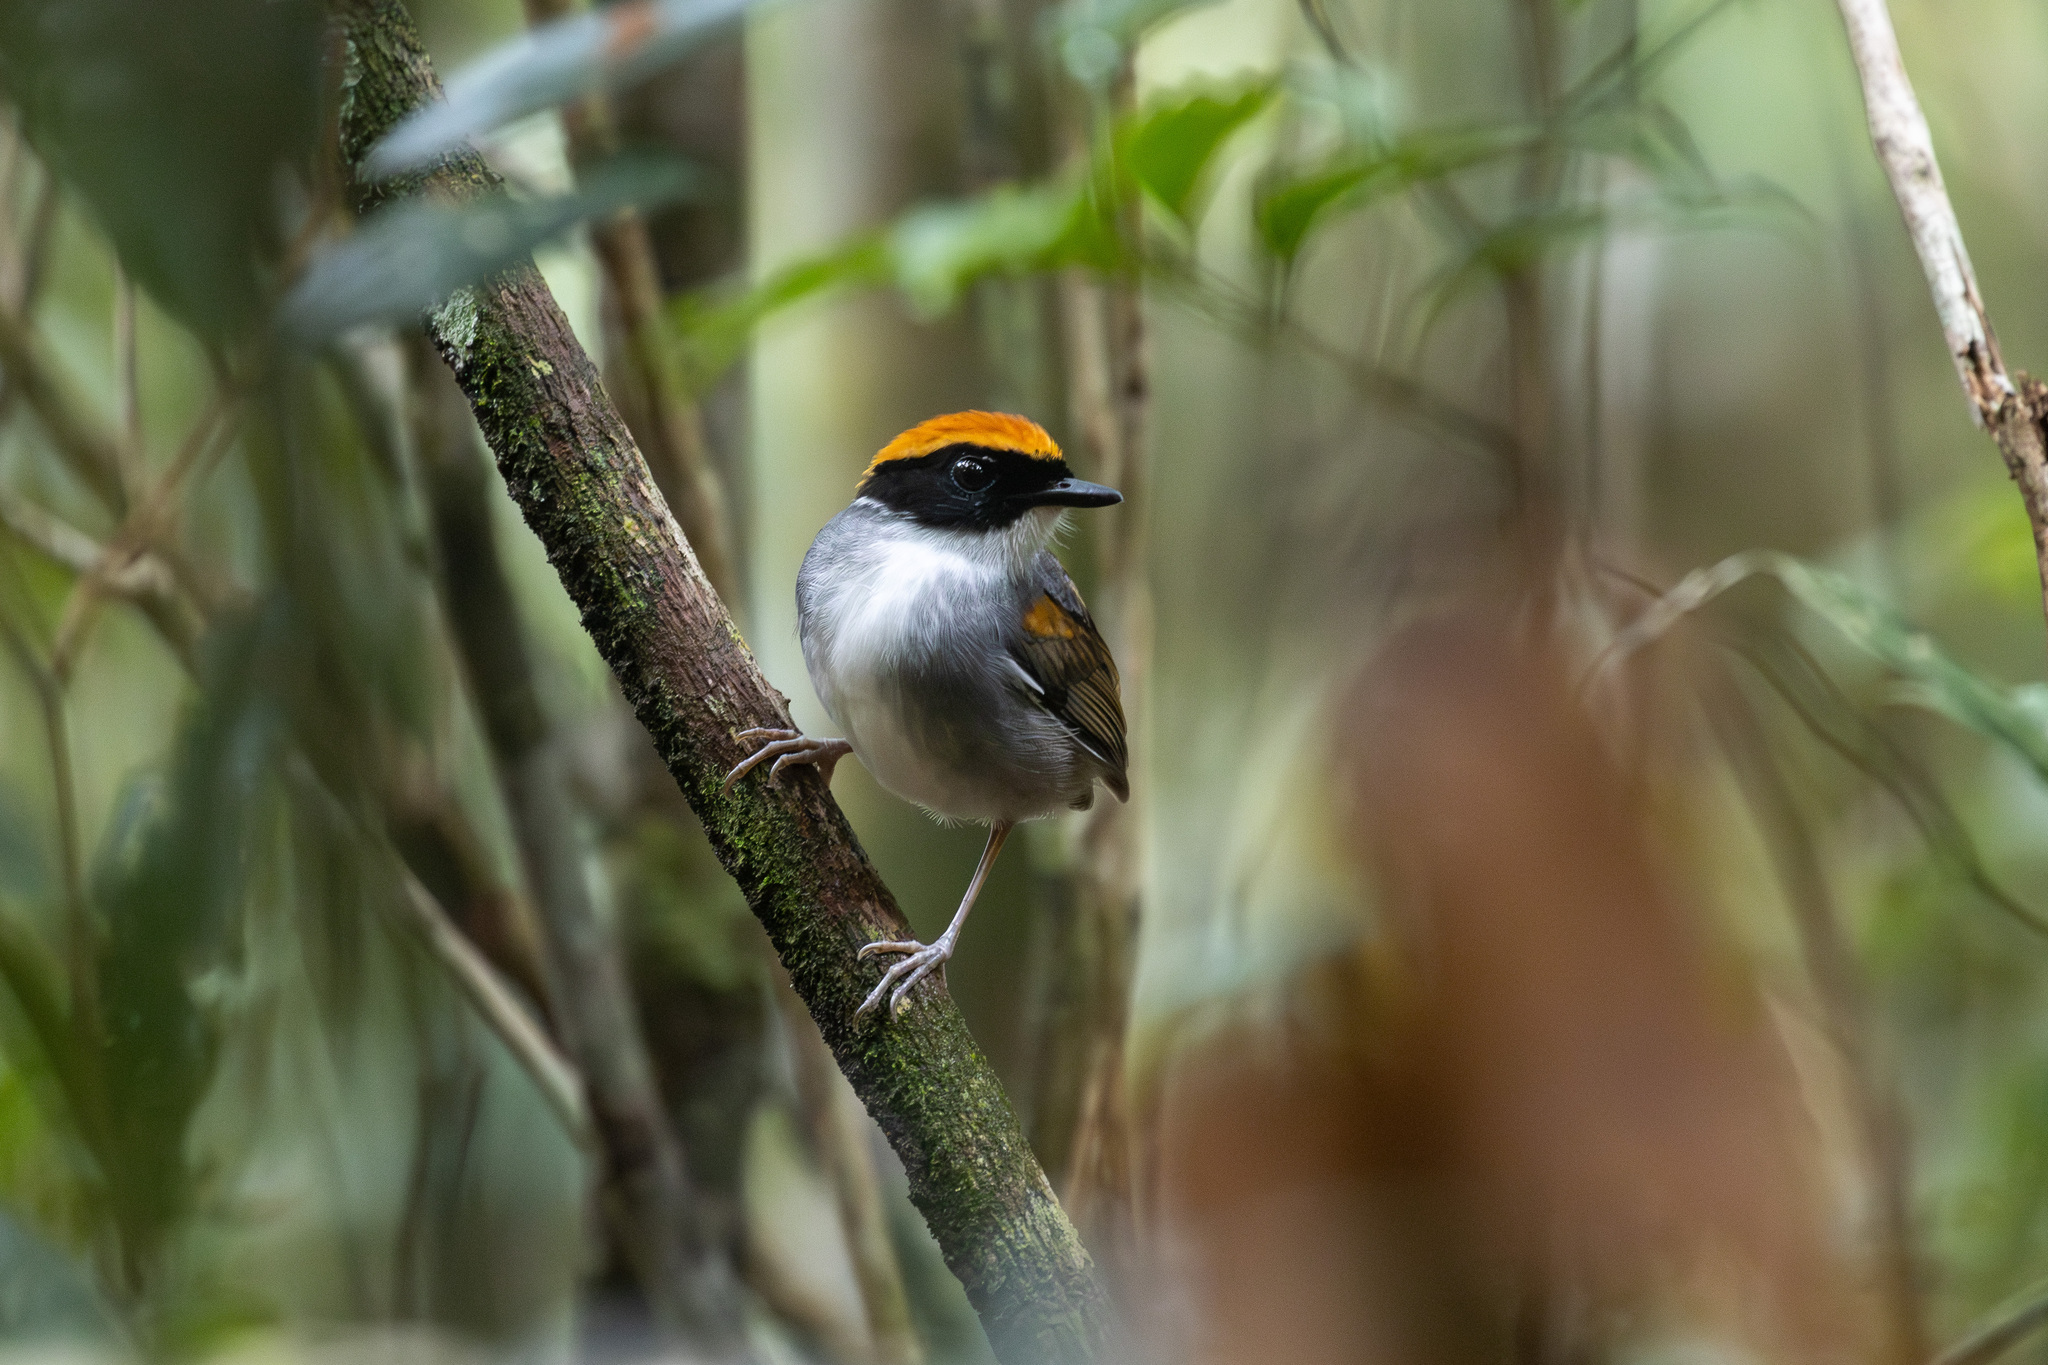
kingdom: Animalia
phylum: Chordata
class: Aves
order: Passeriformes
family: Conopophagidae
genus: Conopophaga
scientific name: Conopophaga melanops
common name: Black-cheeked gnateater
